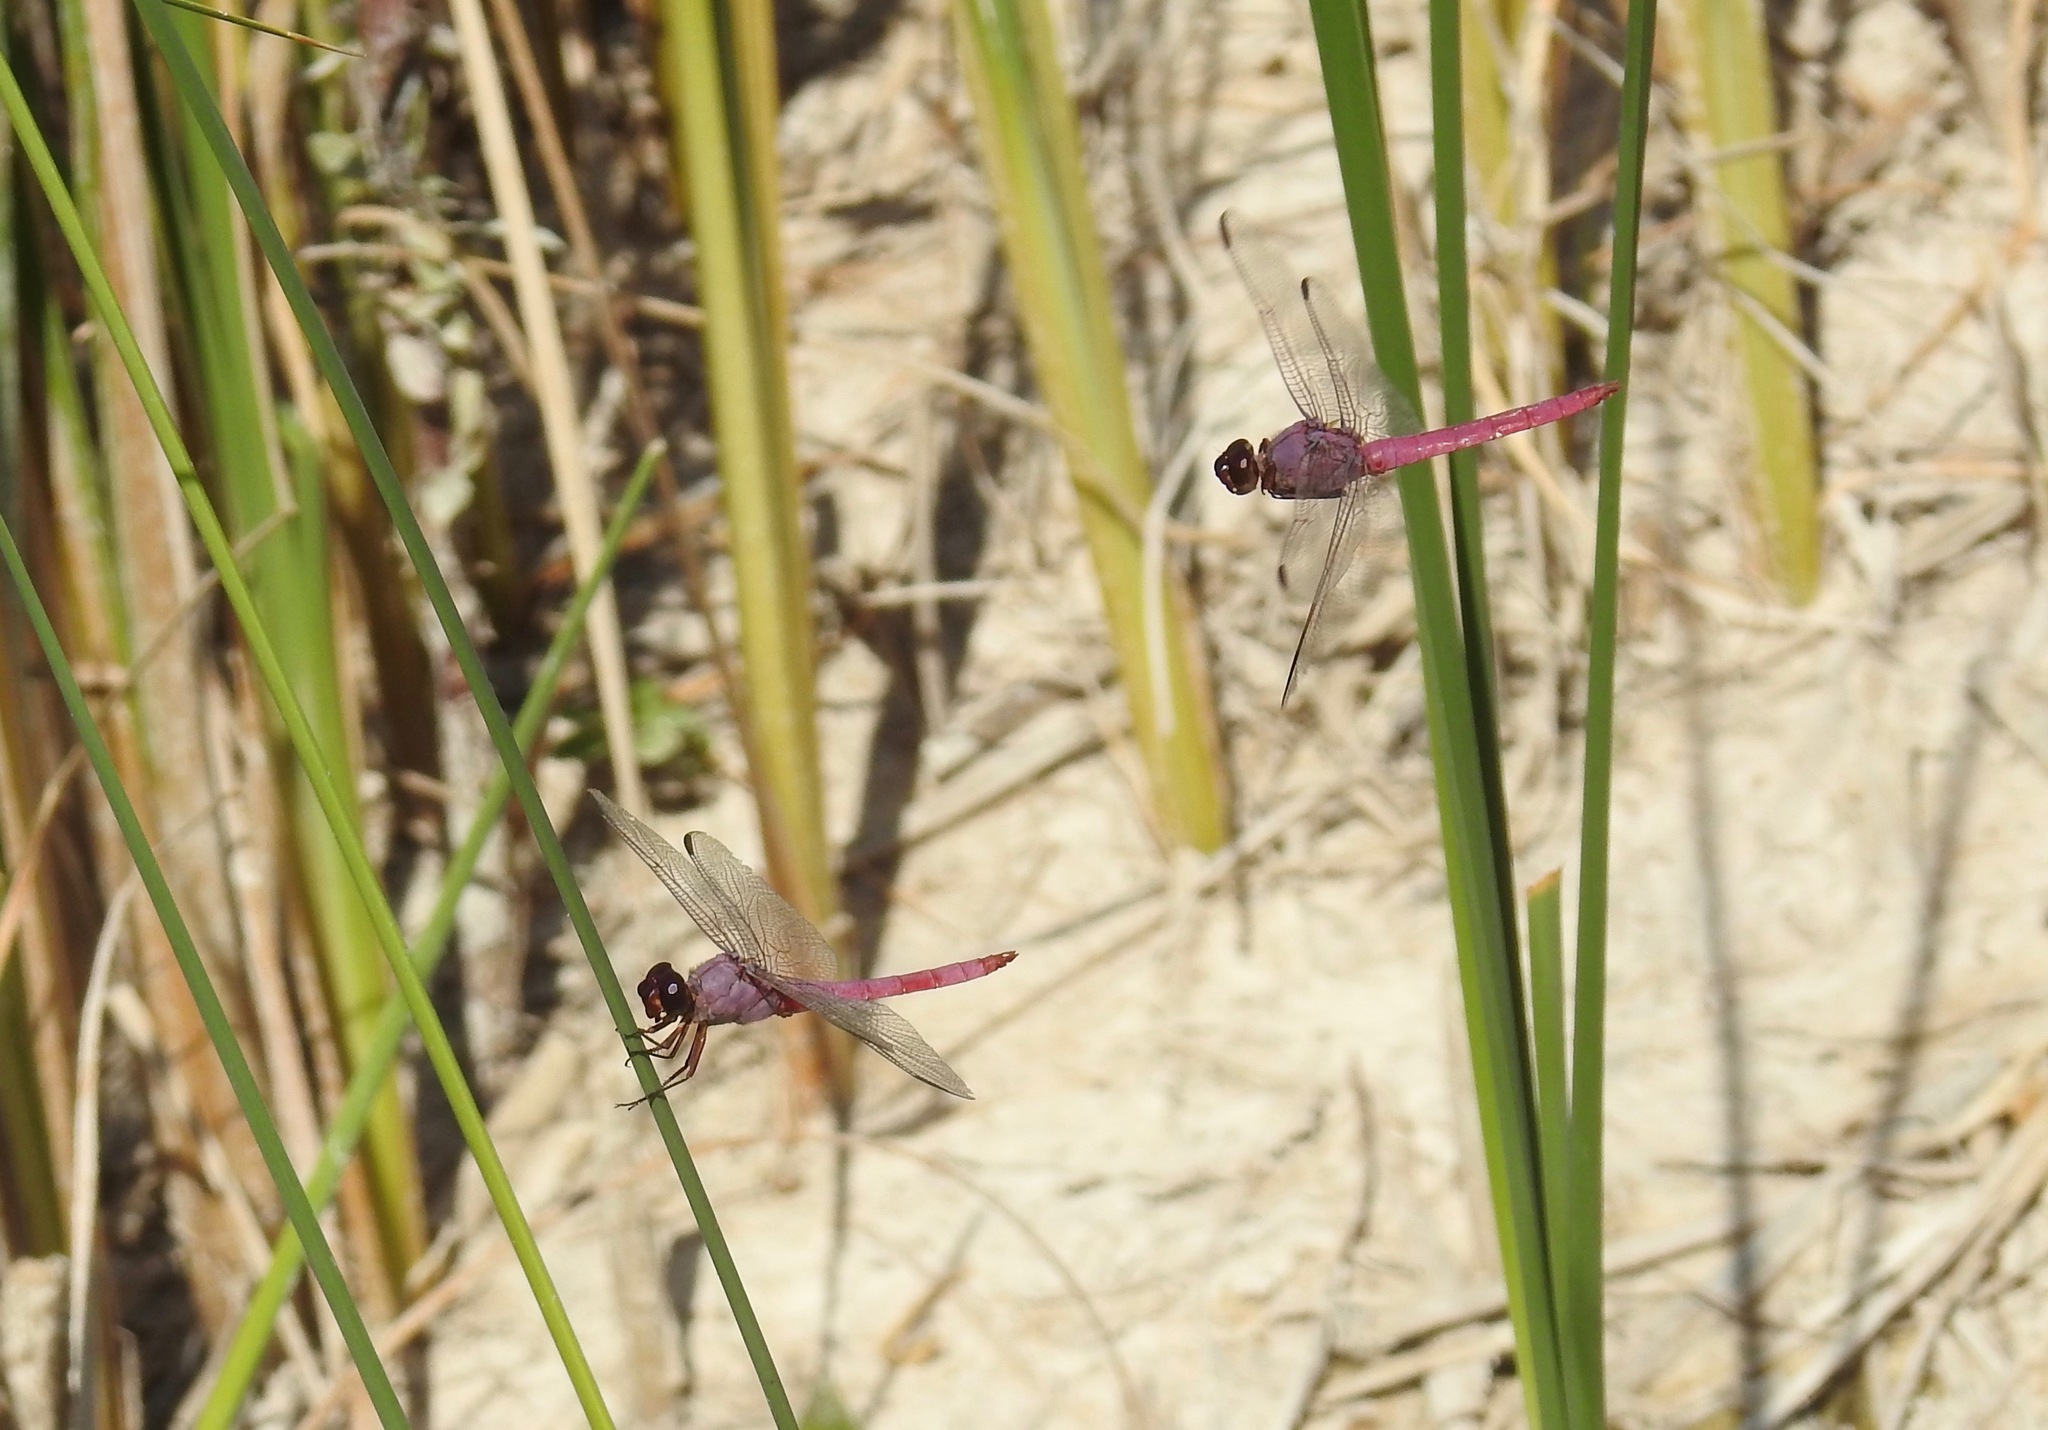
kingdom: Animalia
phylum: Arthropoda
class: Insecta
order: Odonata
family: Libellulidae
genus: Orthemis
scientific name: Orthemis ferruginea
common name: Roseate skimmer
